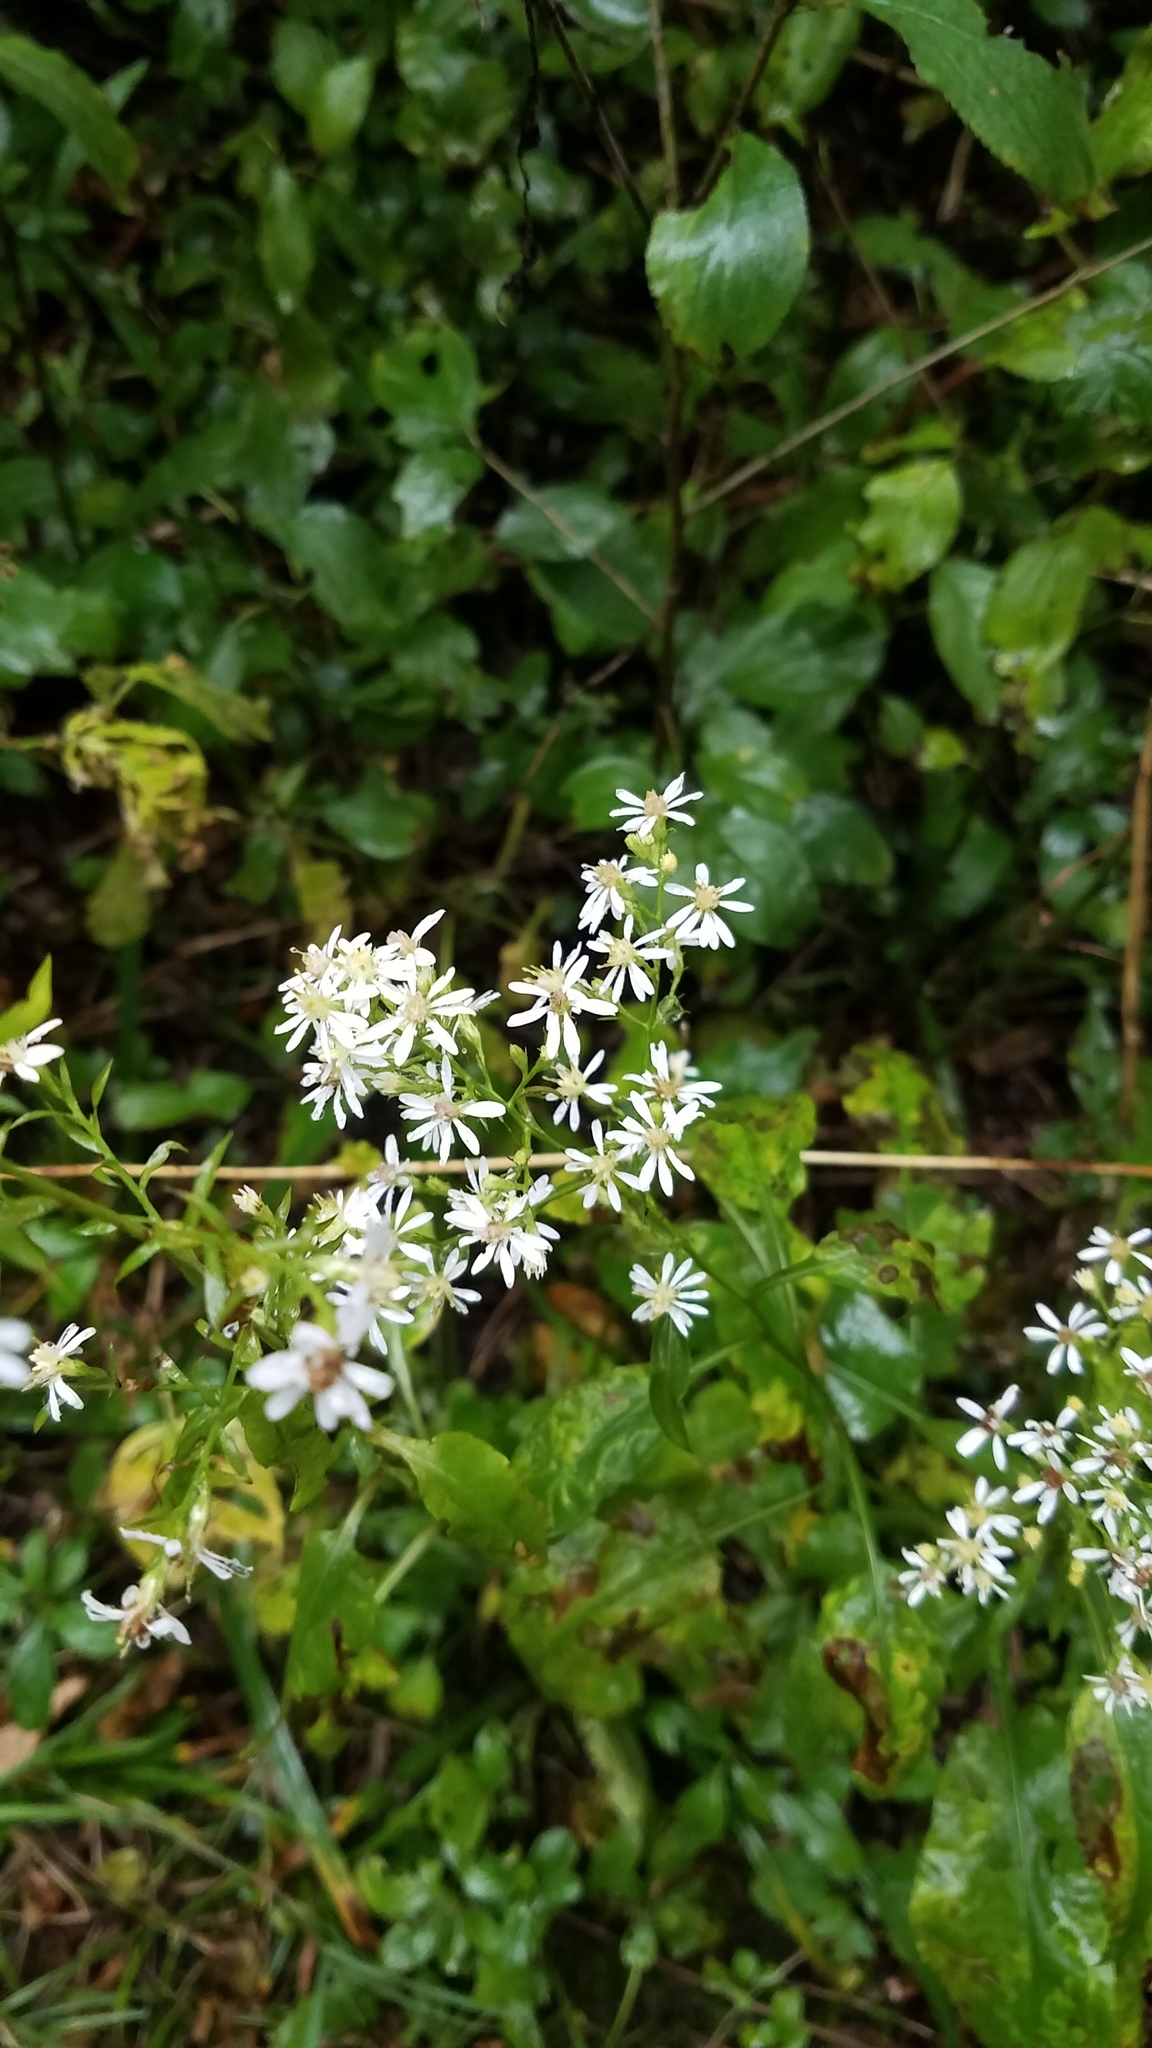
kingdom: Plantae
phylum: Tracheophyta
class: Magnoliopsida
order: Asterales
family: Asteraceae
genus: Symphyotrichum
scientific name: Symphyotrichum urophyllum
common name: Arrow-leaved aster
